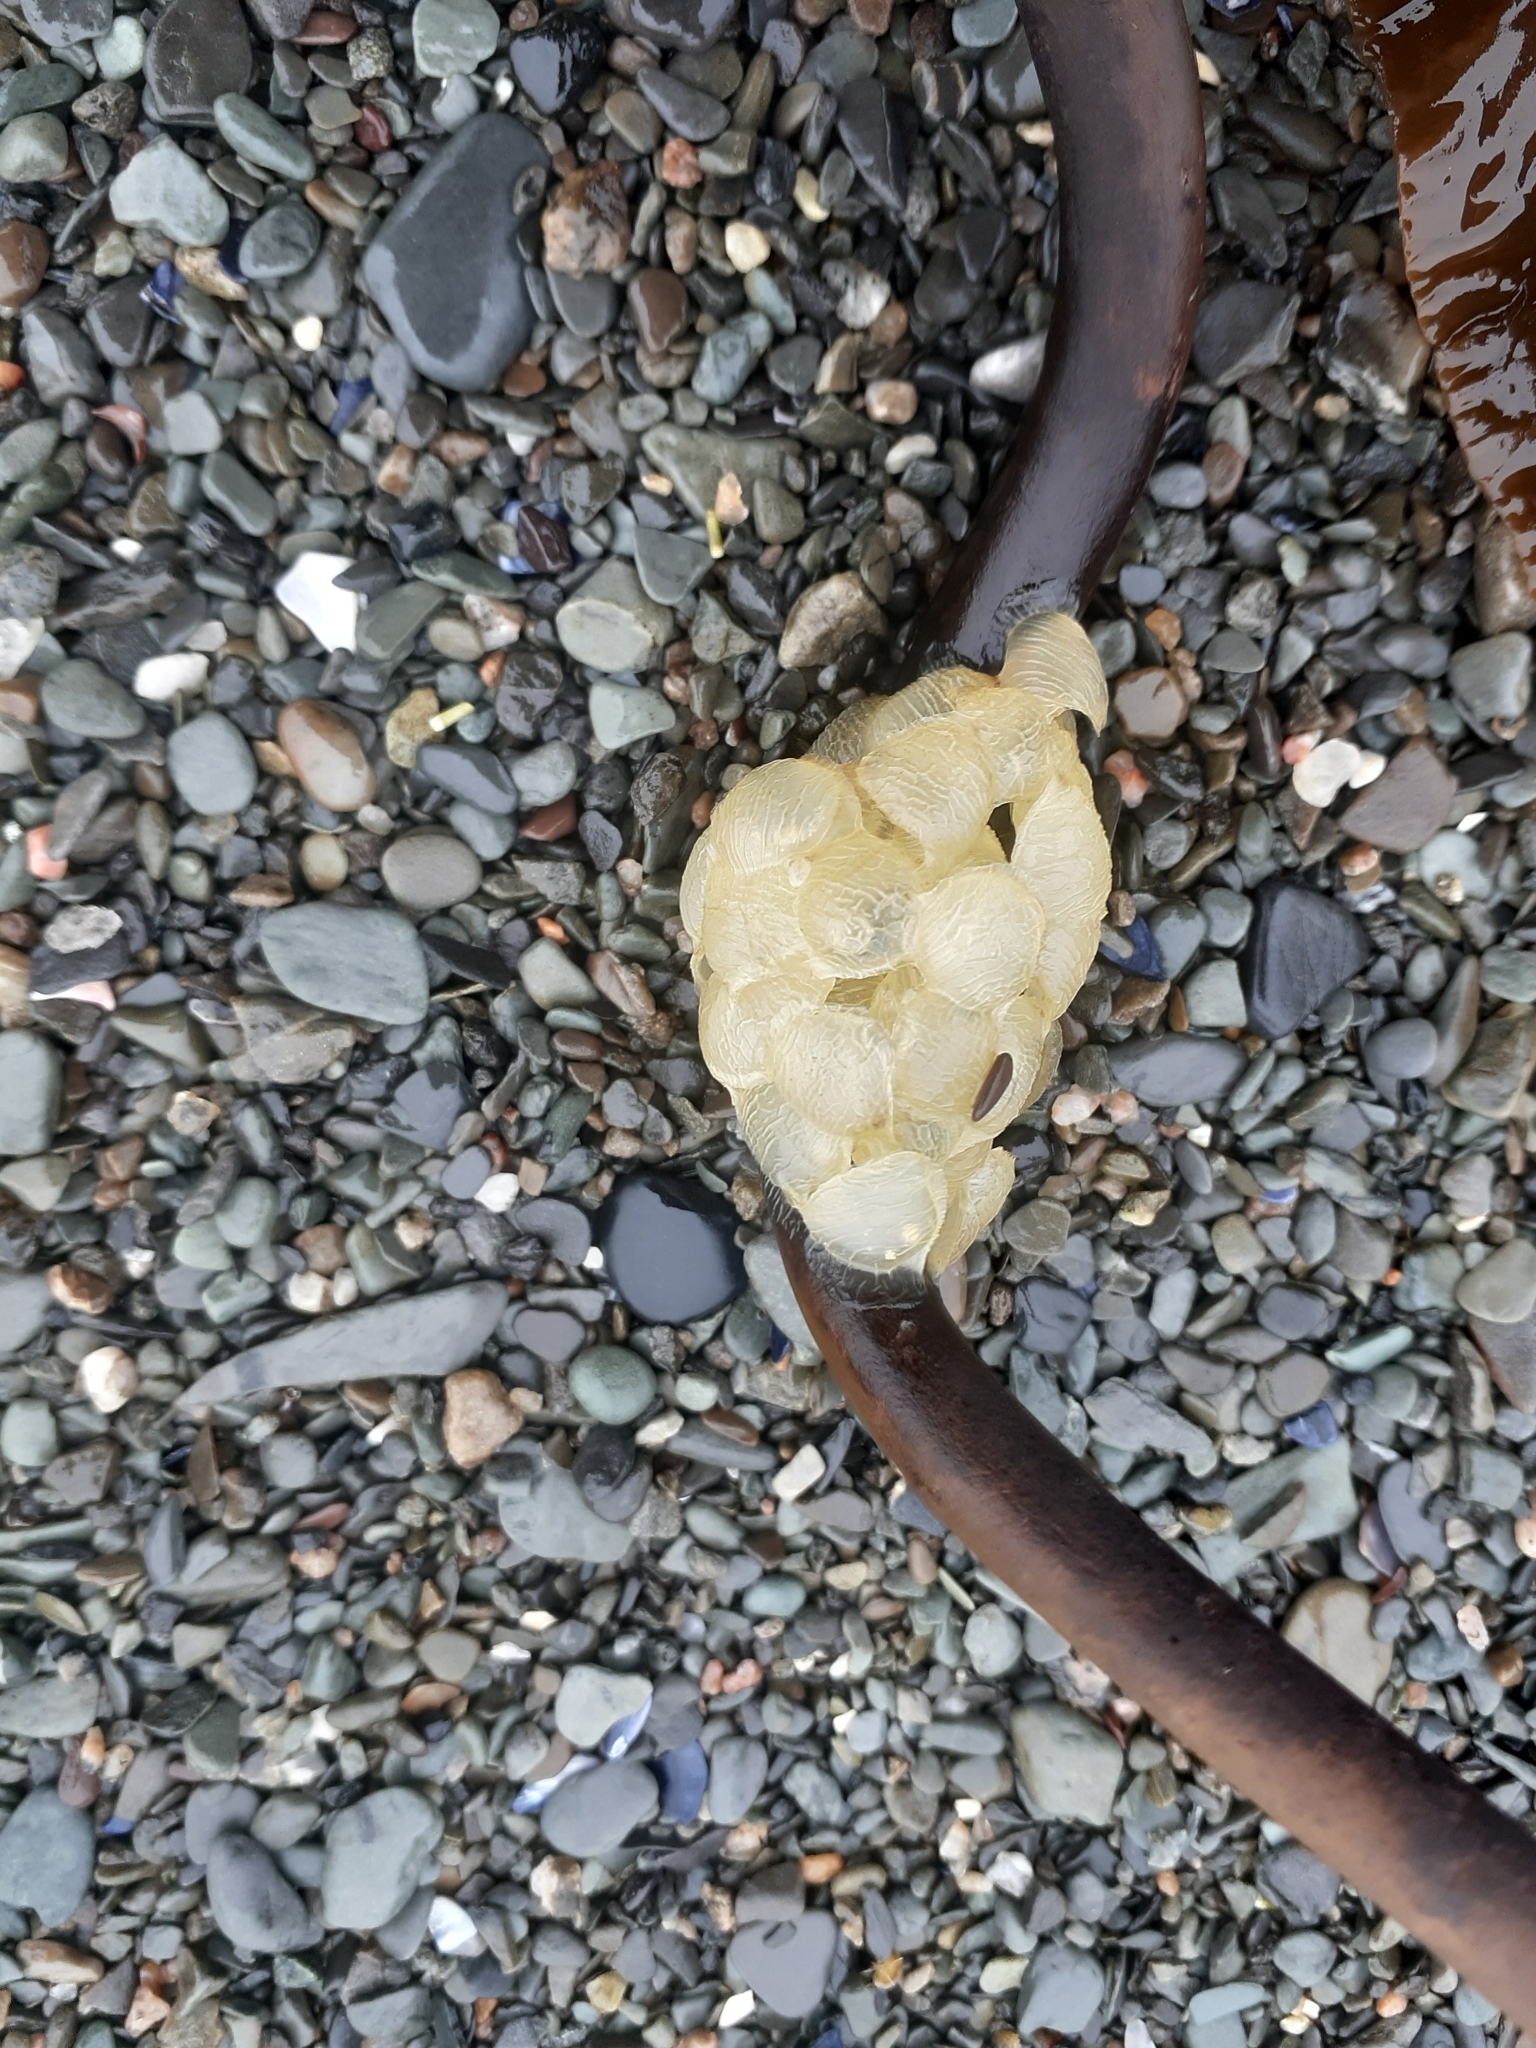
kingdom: Animalia
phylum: Mollusca
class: Gastropoda
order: Neogastropoda
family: Buccinidae
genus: Buccinum
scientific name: Buccinum undatum
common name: Common whelk
